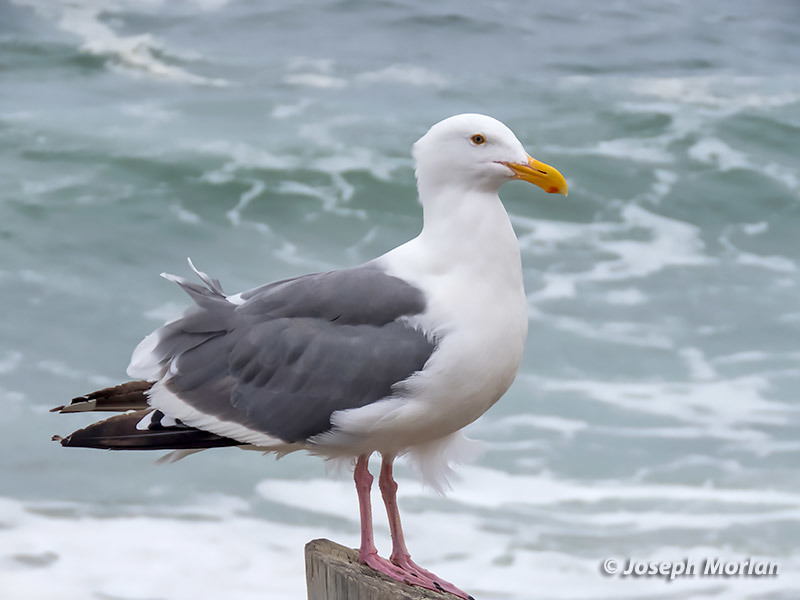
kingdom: Animalia
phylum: Chordata
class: Aves
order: Charadriiformes
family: Laridae
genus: Larus
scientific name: Larus occidentalis
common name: Western gull
